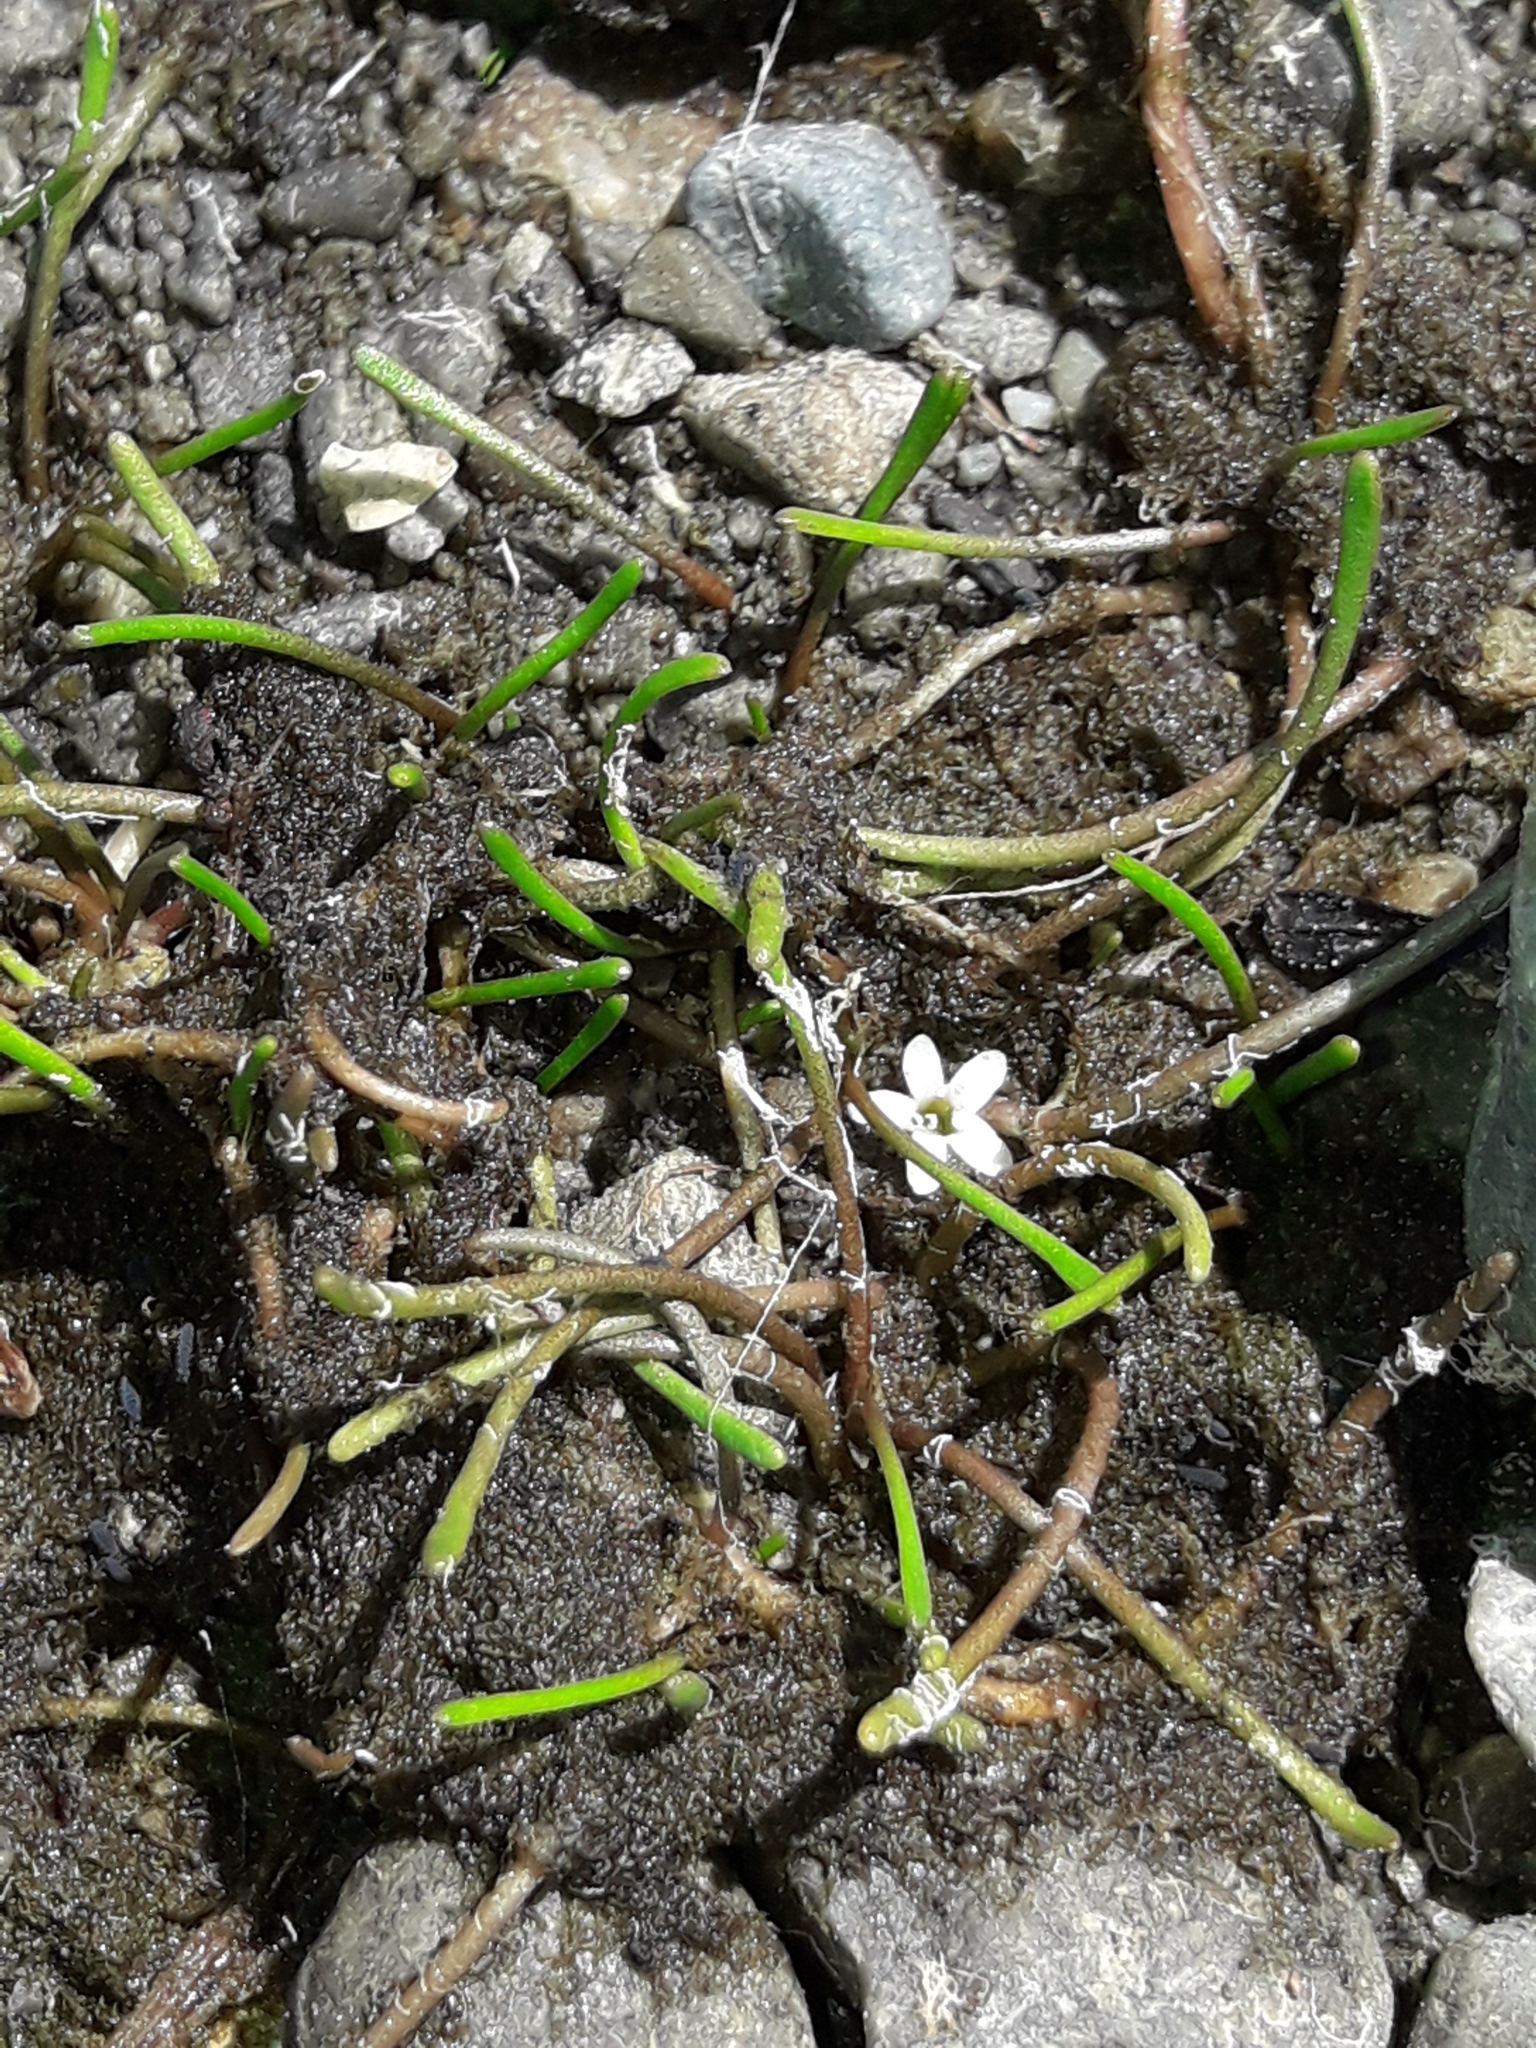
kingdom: Plantae
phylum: Tracheophyta
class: Magnoliopsida
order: Lamiales
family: Scrophulariaceae
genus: Limosella
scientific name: Limosella australis
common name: Welsh mudwort
